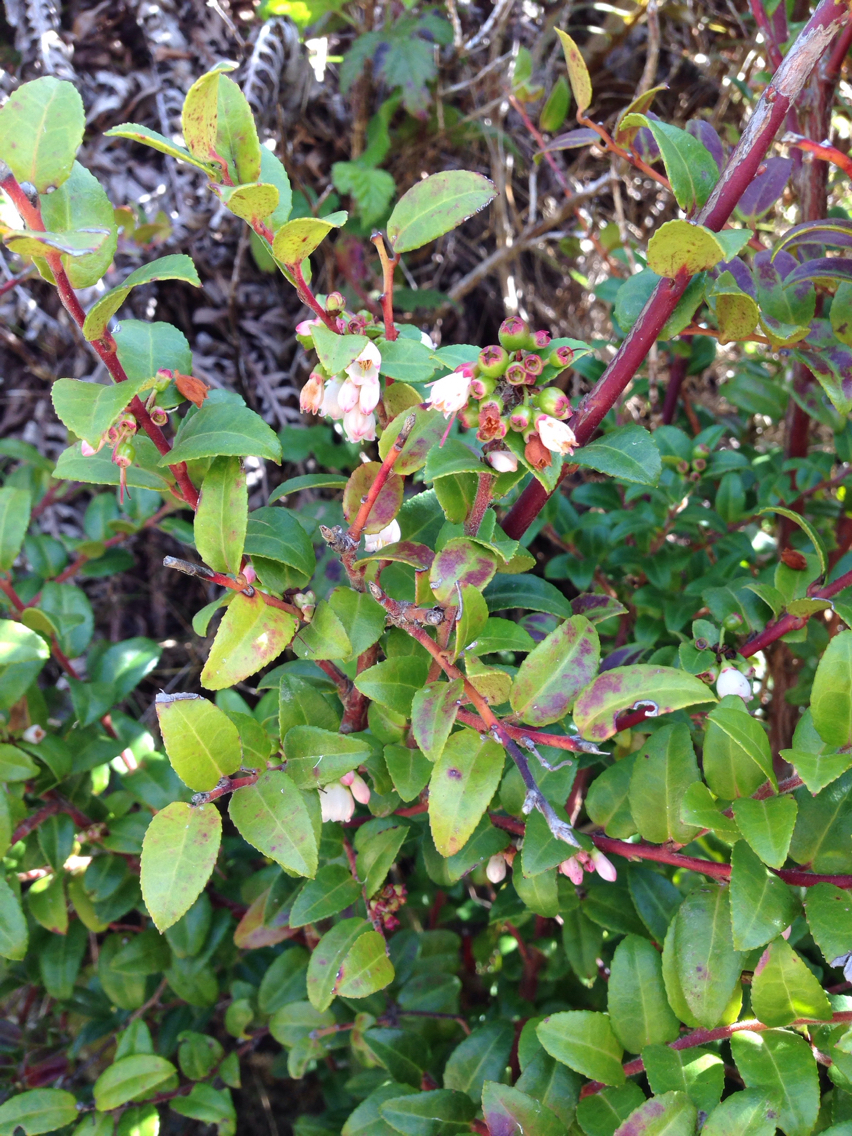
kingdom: Plantae
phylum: Tracheophyta
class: Magnoliopsida
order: Ericales
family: Ericaceae
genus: Vaccinium
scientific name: Vaccinium ovatum
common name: California-huckleberry
